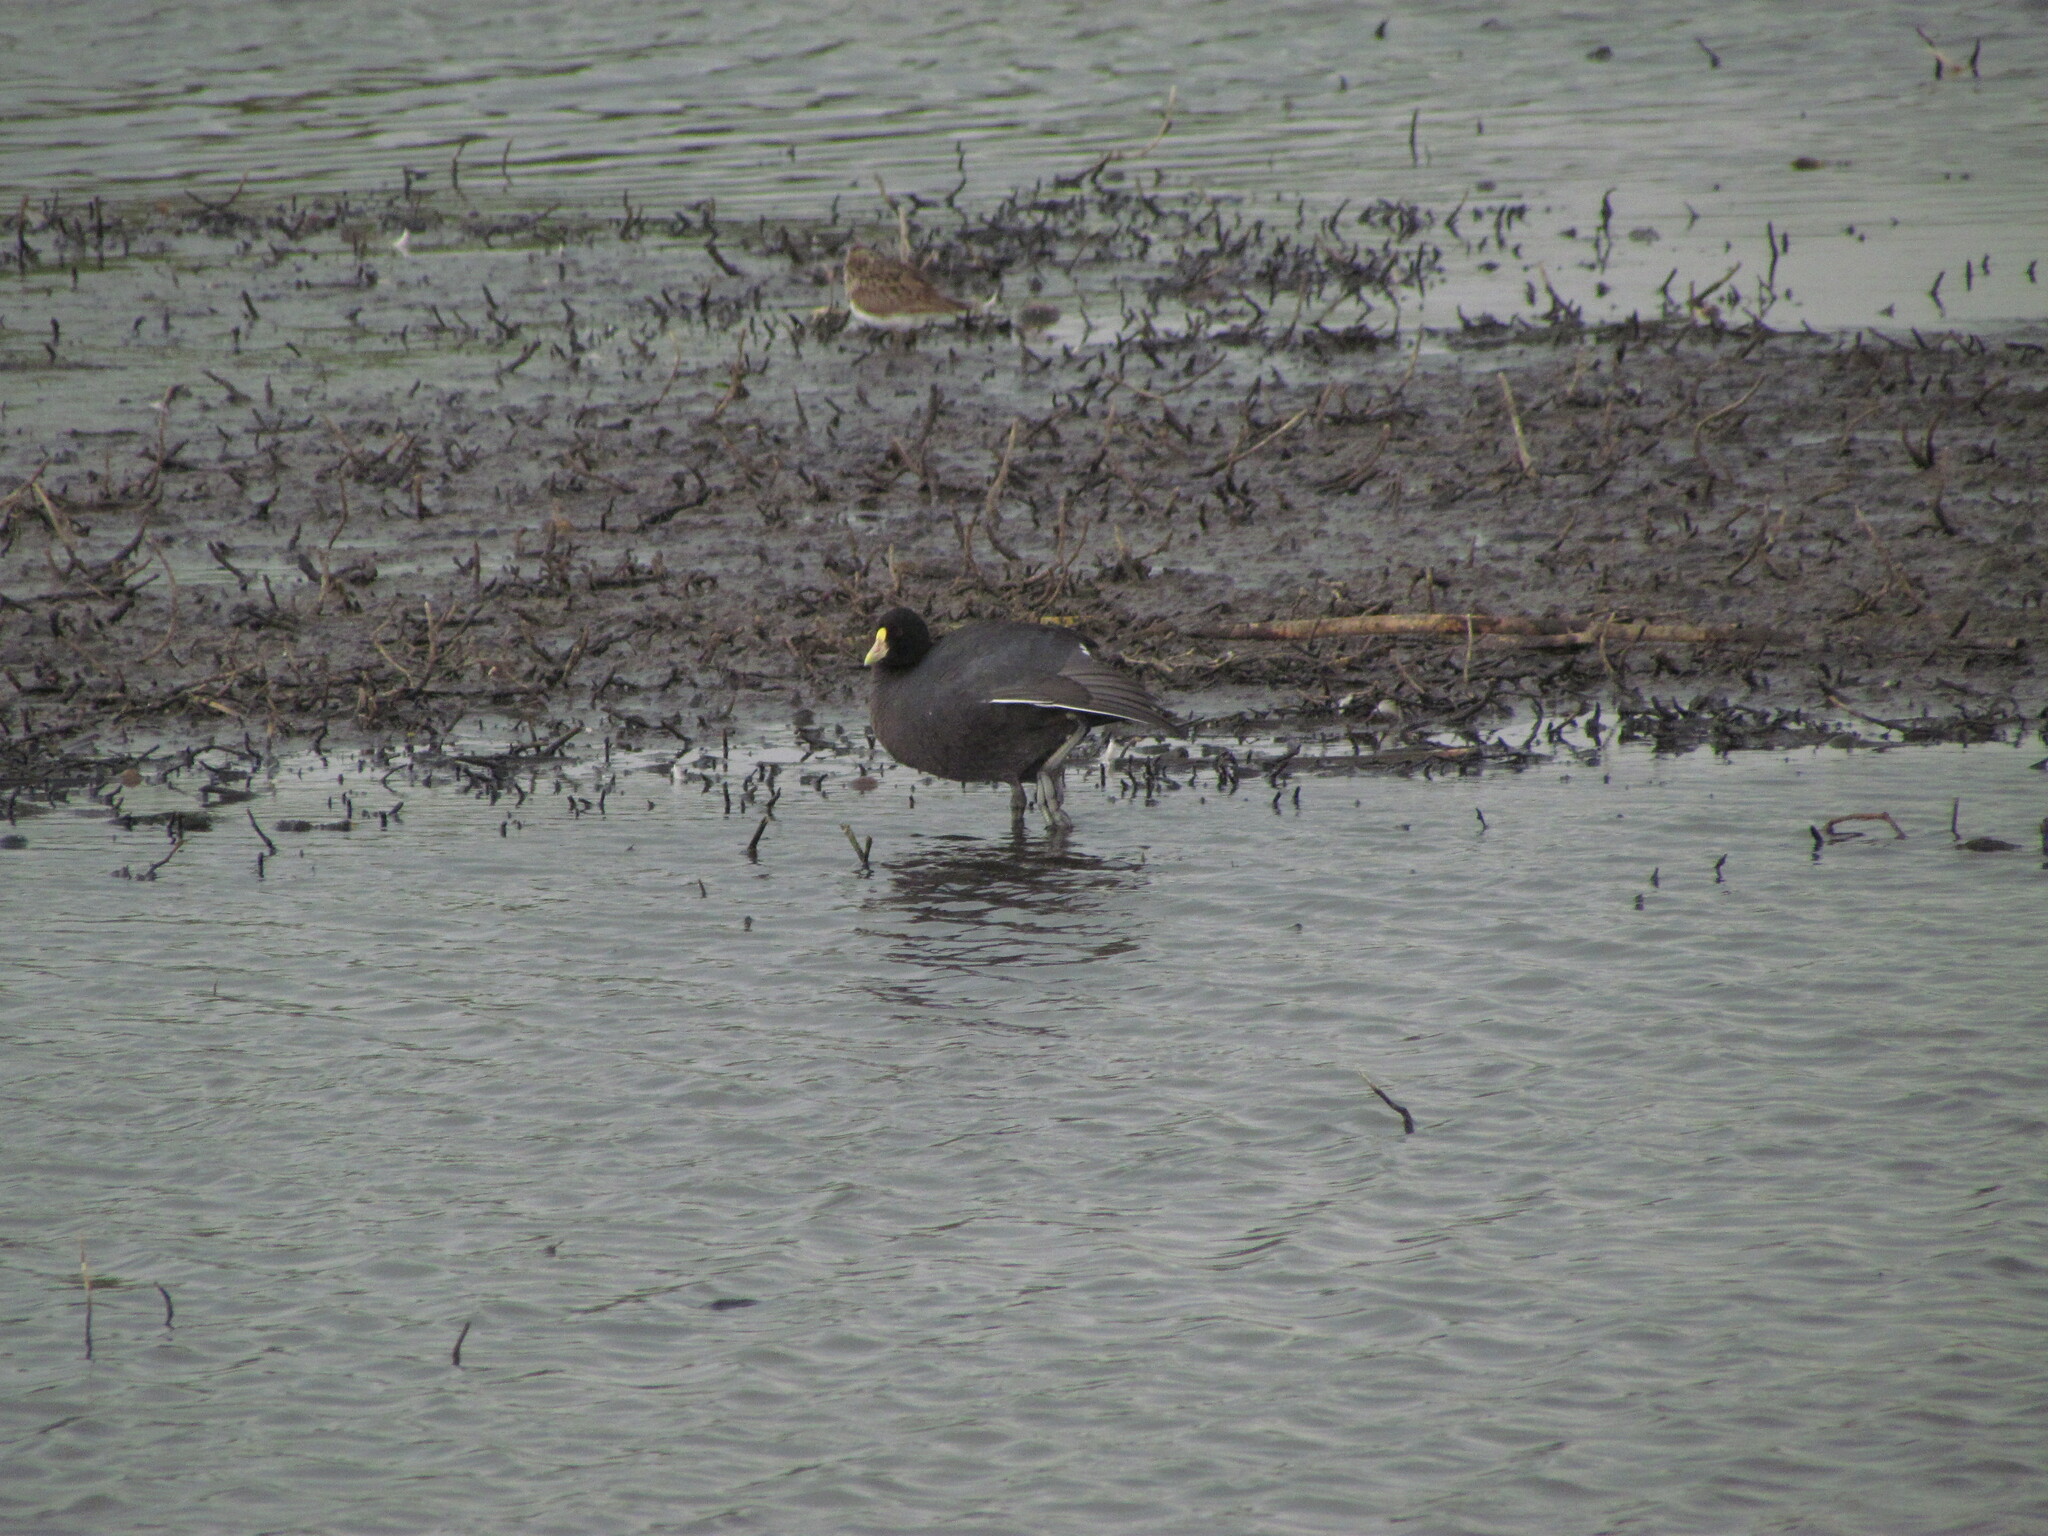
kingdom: Animalia
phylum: Chordata
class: Aves
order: Gruiformes
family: Rallidae
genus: Fulica
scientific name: Fulica leucoptera
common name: White-winged coot
